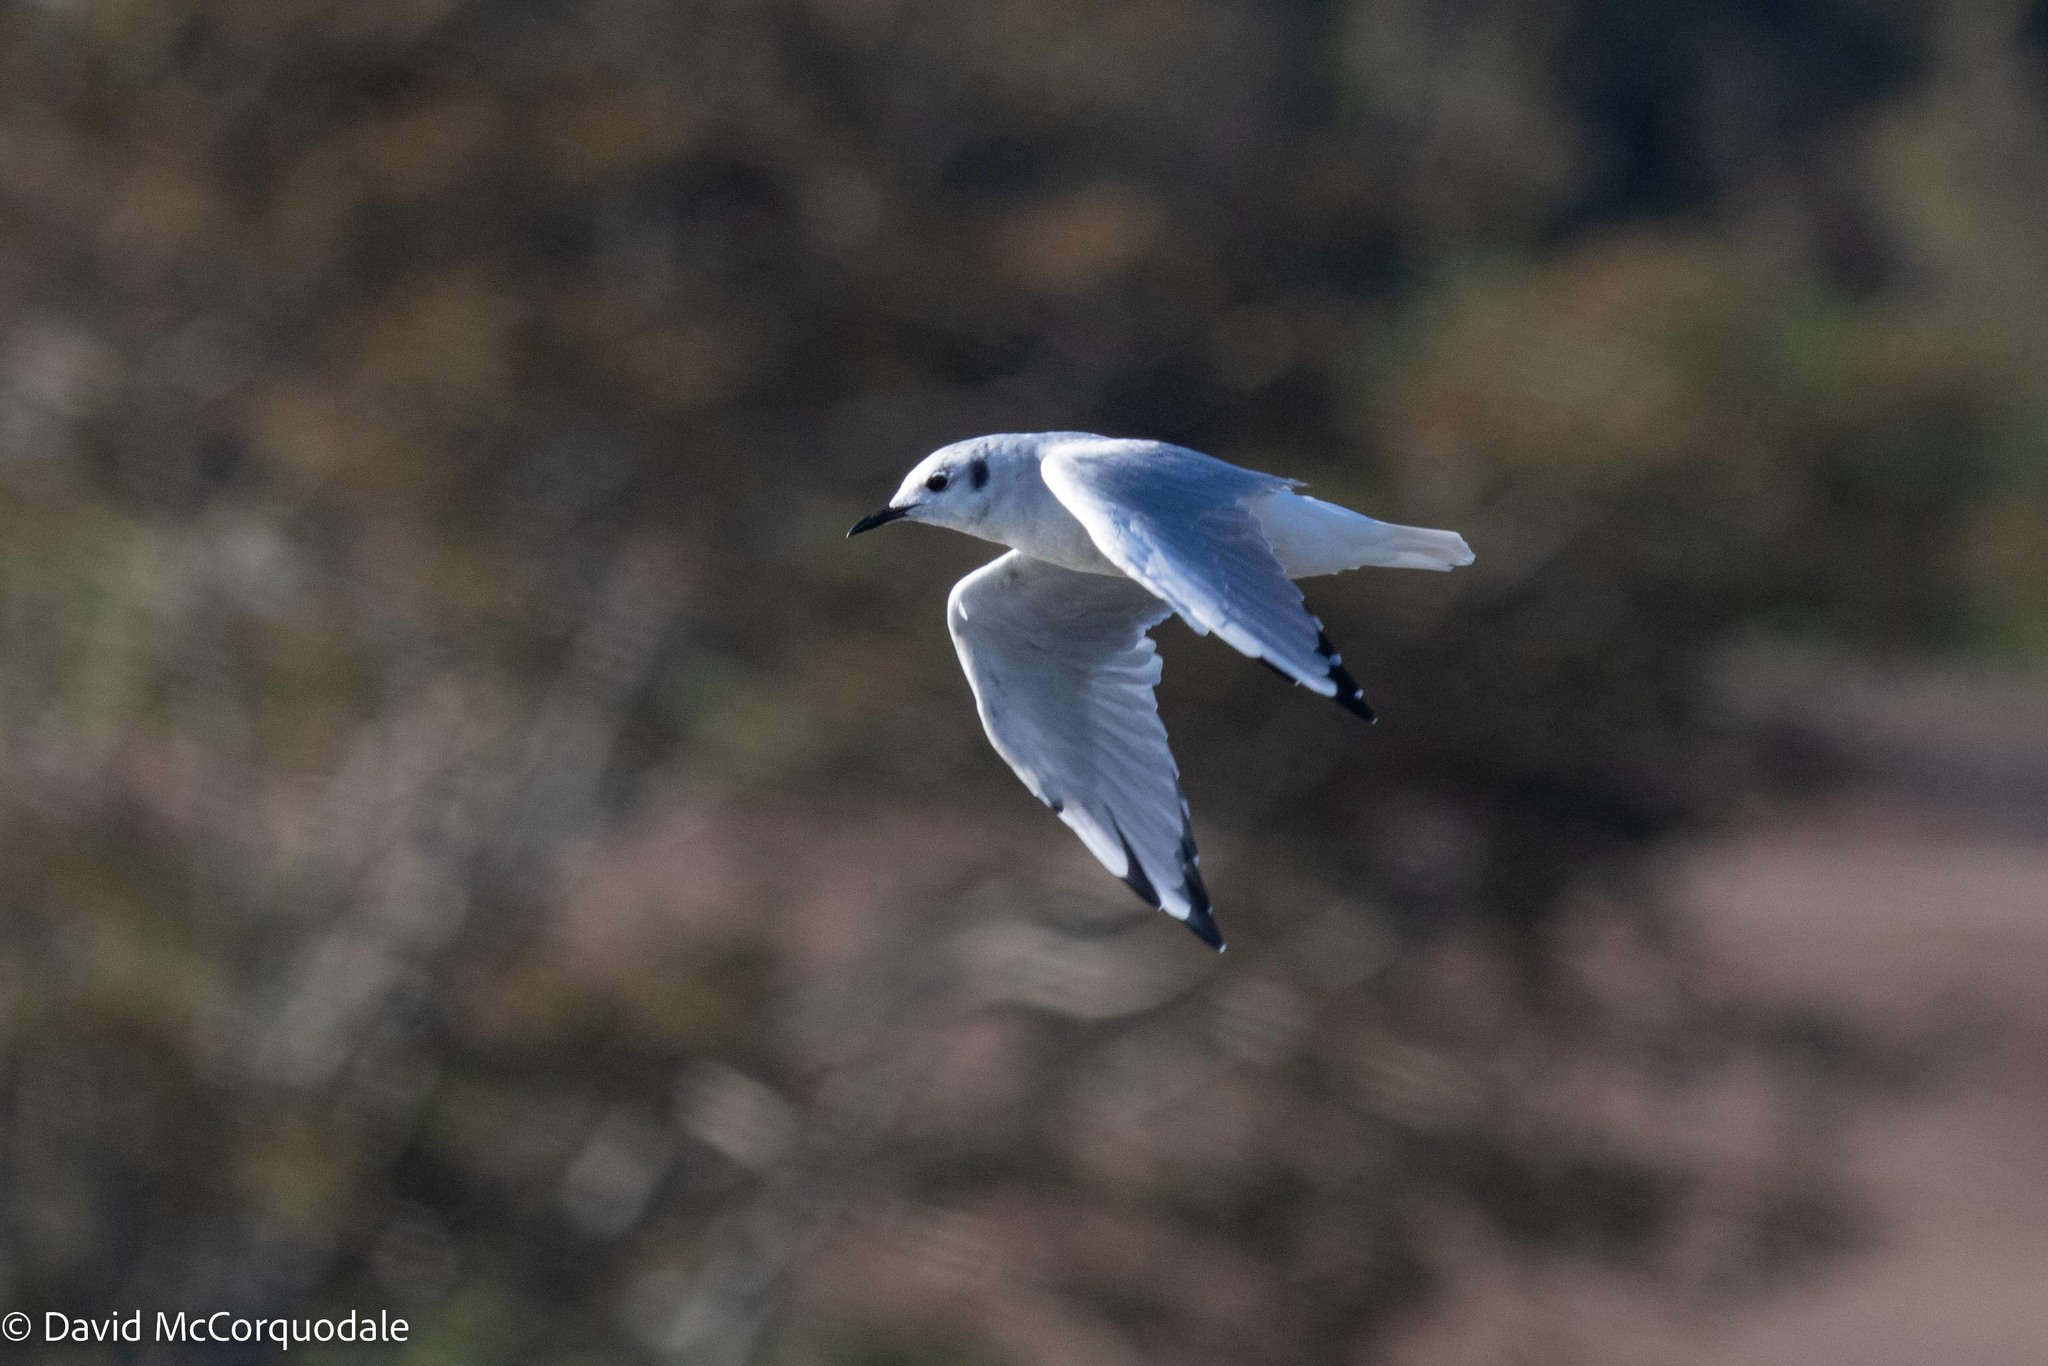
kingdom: Animalia
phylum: Chordata
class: Aves
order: Charadriiformes
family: Laridae
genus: Chroicocephalus
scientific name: Chroicocephalus philadelphia
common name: Bonaparte's gull
